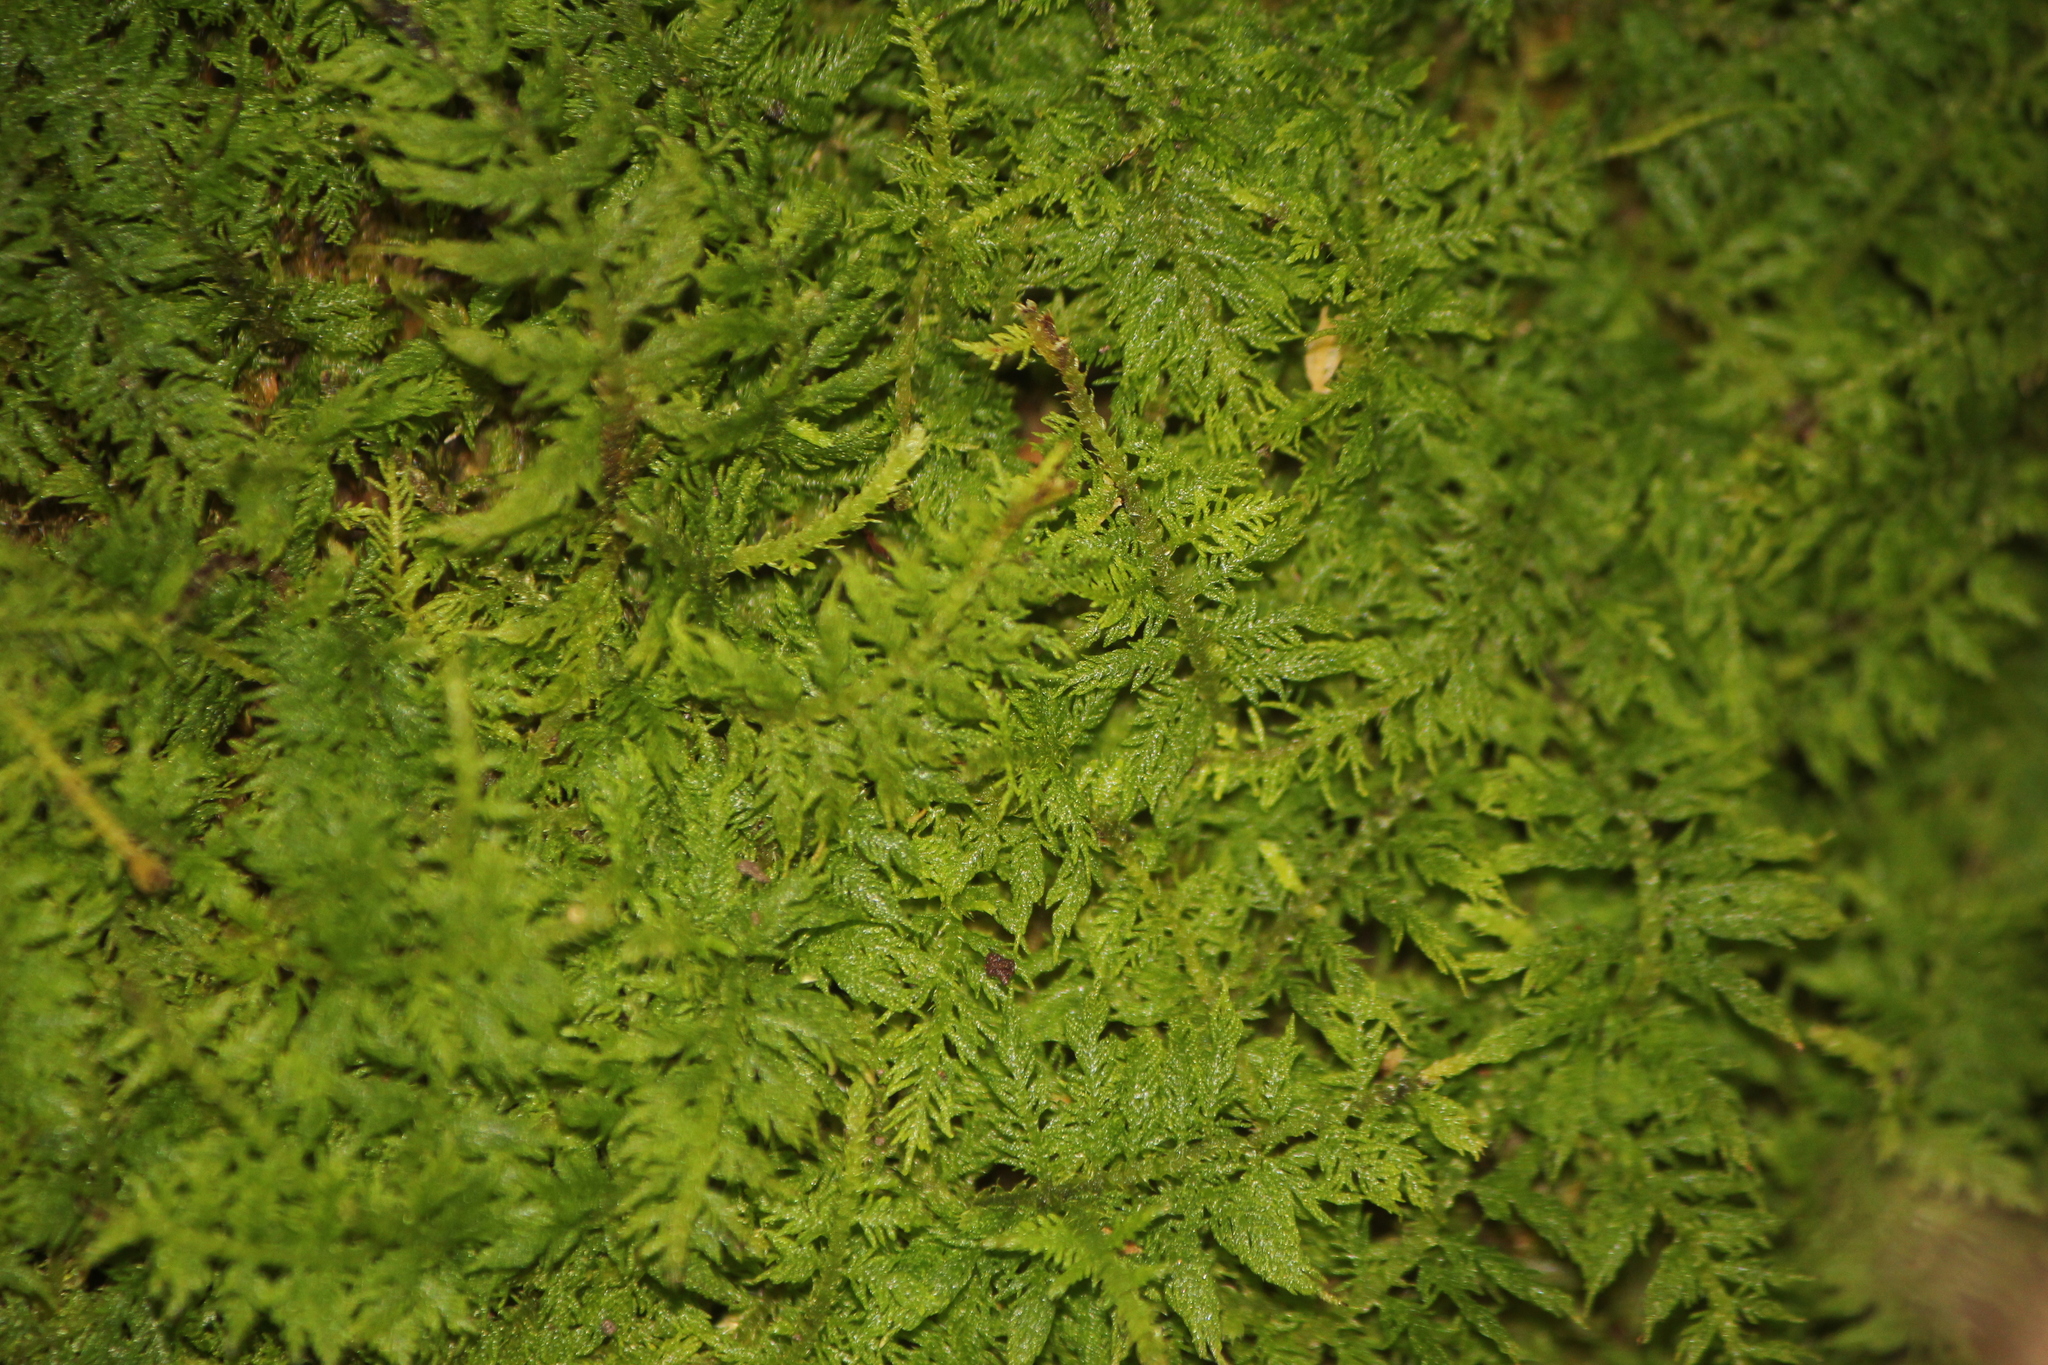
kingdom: Plantae
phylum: Bryophyta
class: Bryopsida
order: Hypnales
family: Thuidiaceae
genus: Thuidium
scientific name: Thuidium delicatulum
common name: Delicate fern moss
